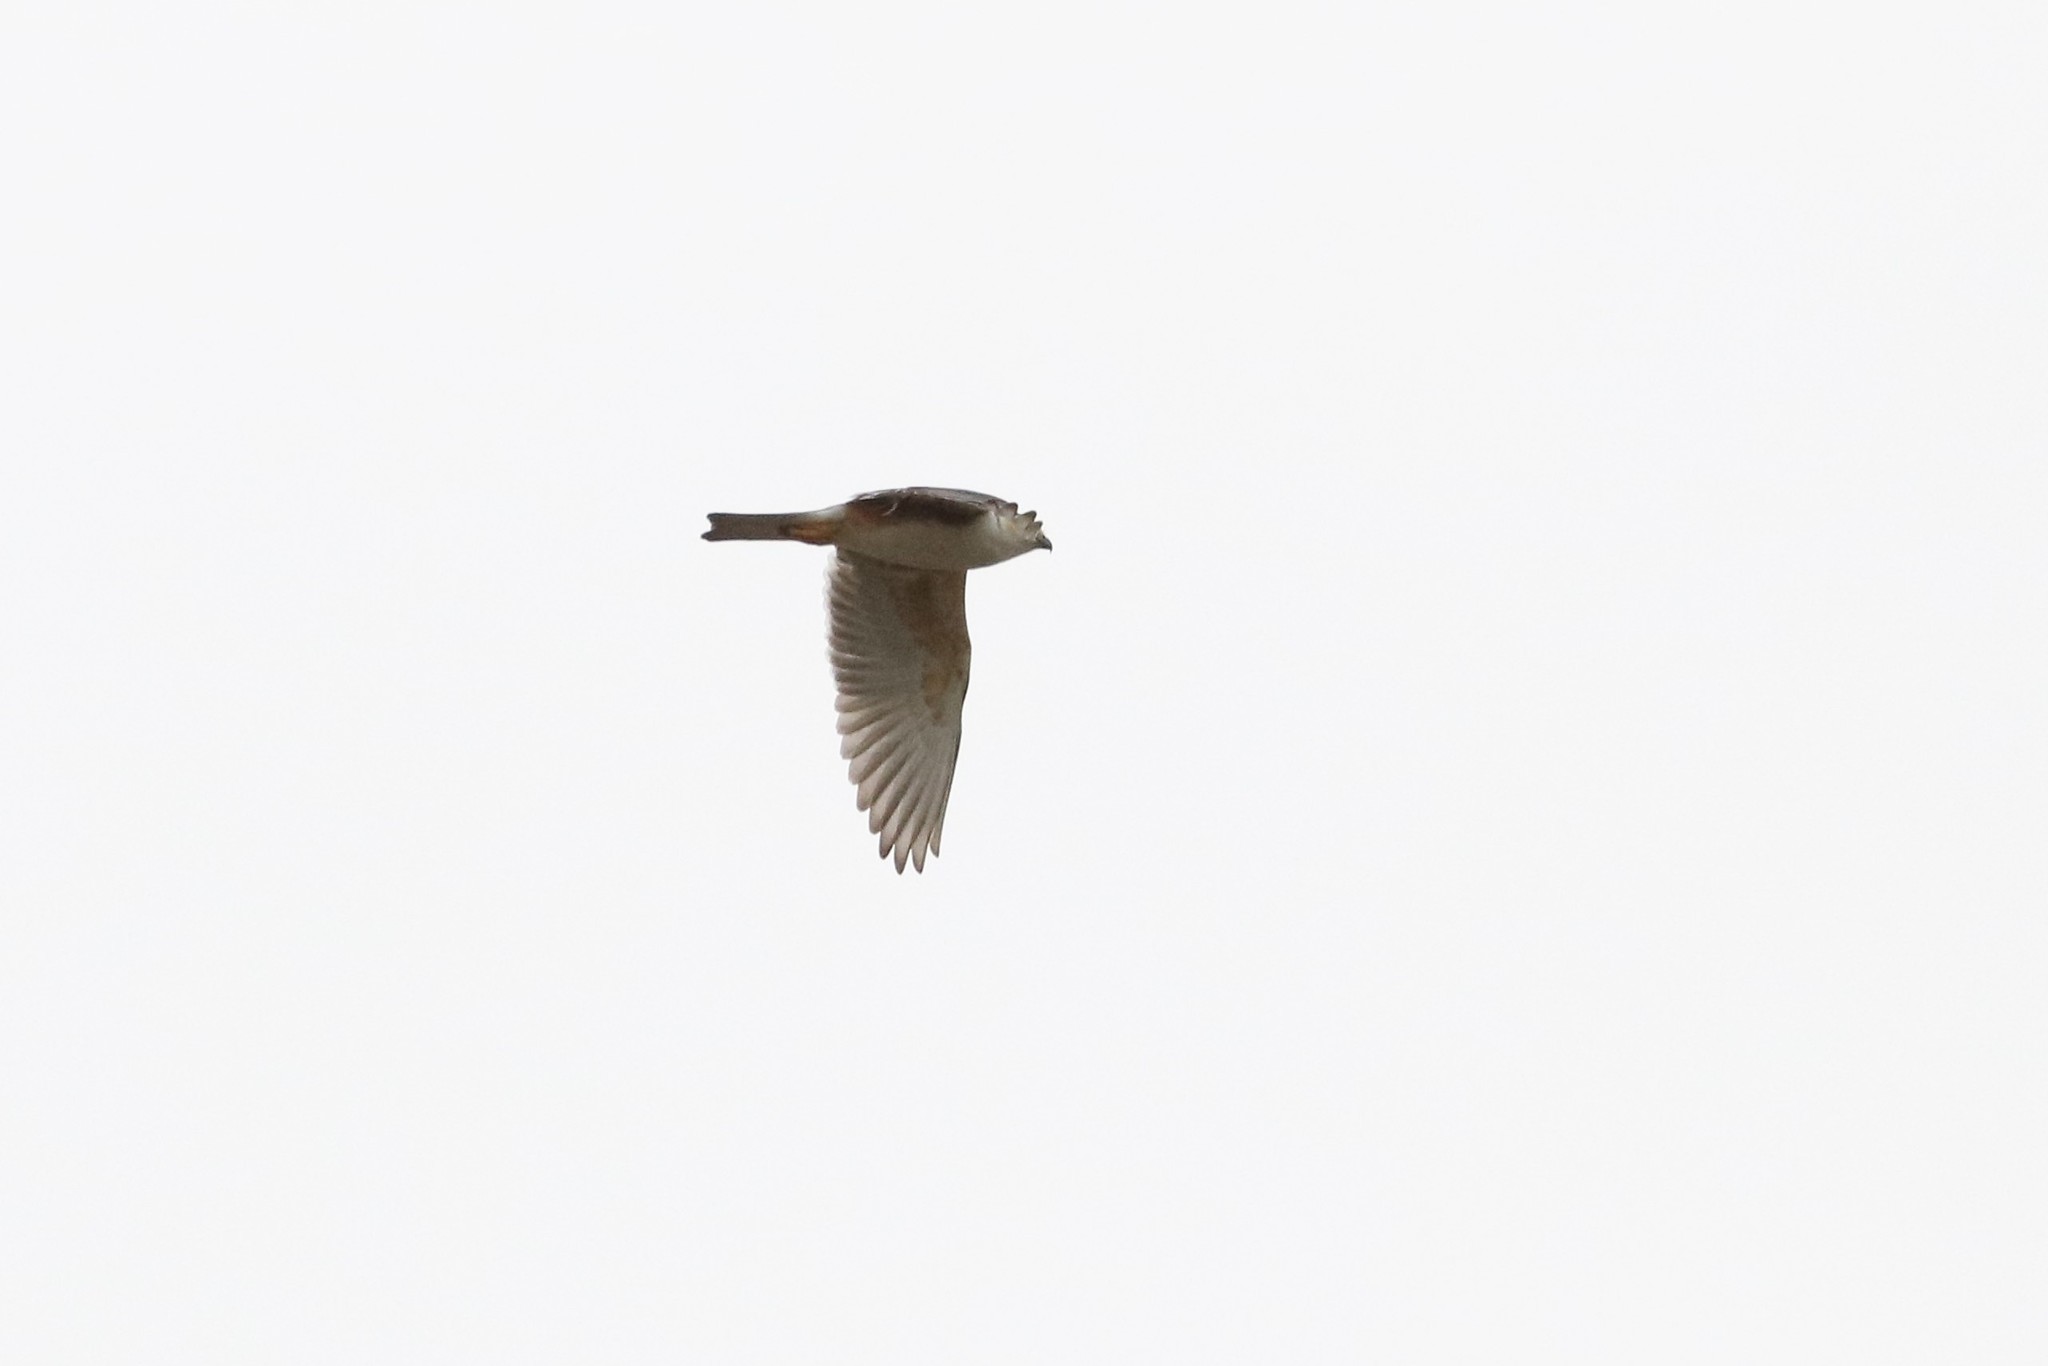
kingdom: Animalia
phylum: Chordata
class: Aves
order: Accipitriformes
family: Accipitridae
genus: Gampsonyx
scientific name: Gampsonyx swainsonii
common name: Pearl kite
